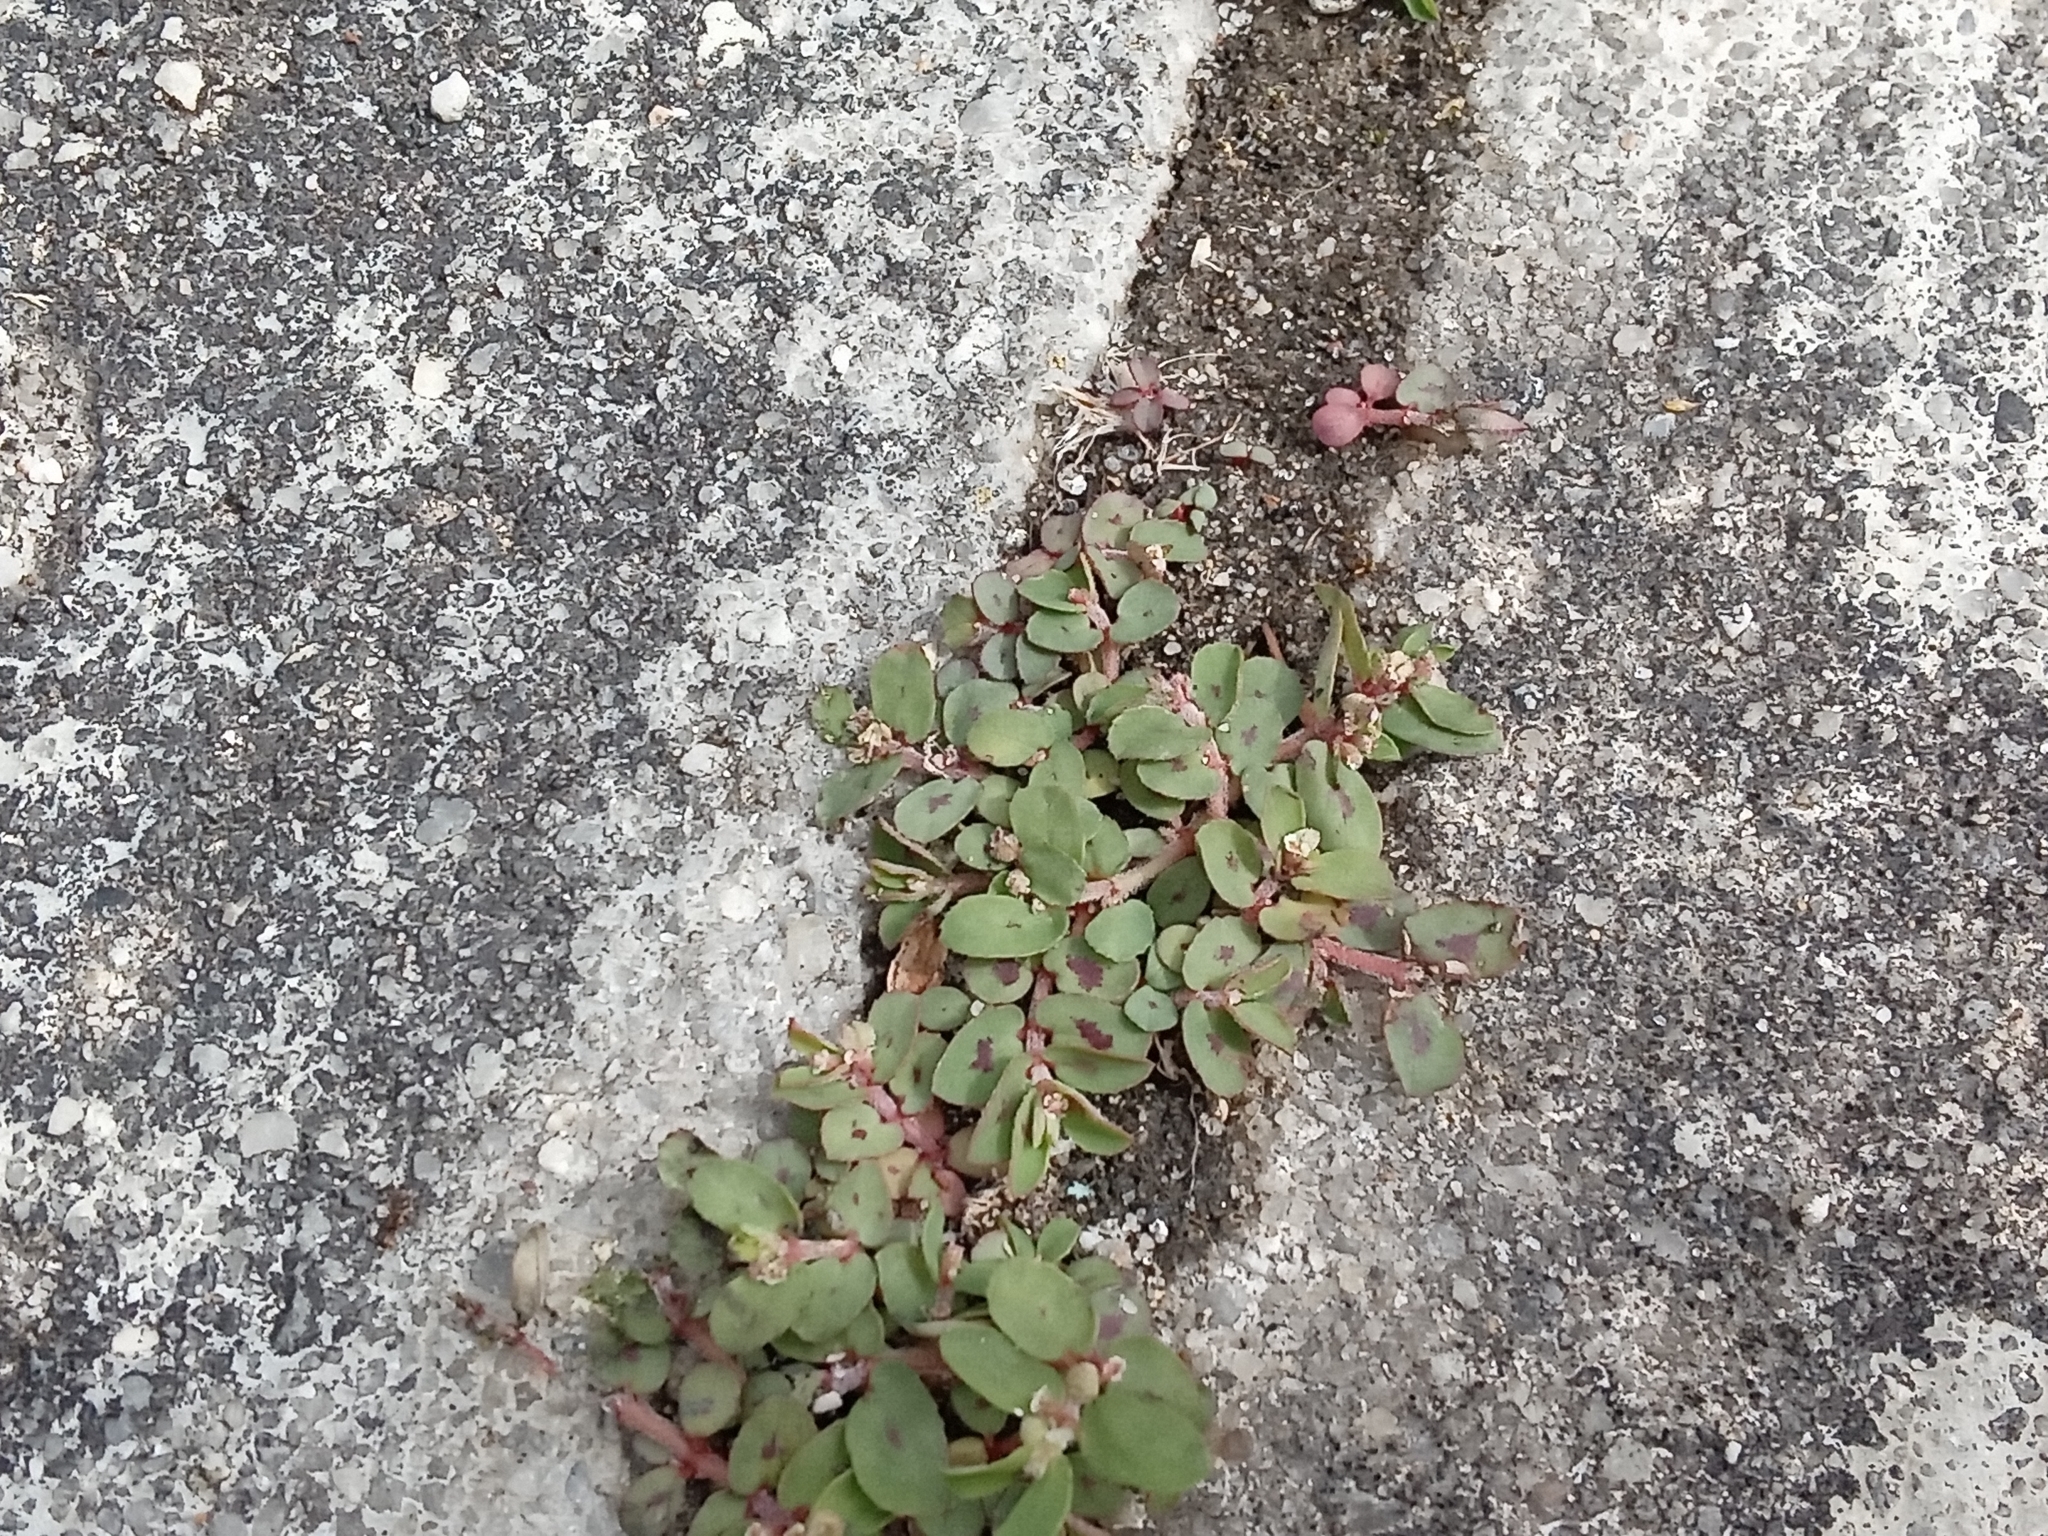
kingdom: Plantae
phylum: Tracheophyta
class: Magnoliopsida
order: Malpighiales
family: Euphorbiaceae
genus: Euphorbia
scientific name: Euphorbia maculata
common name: Spotted spurge
